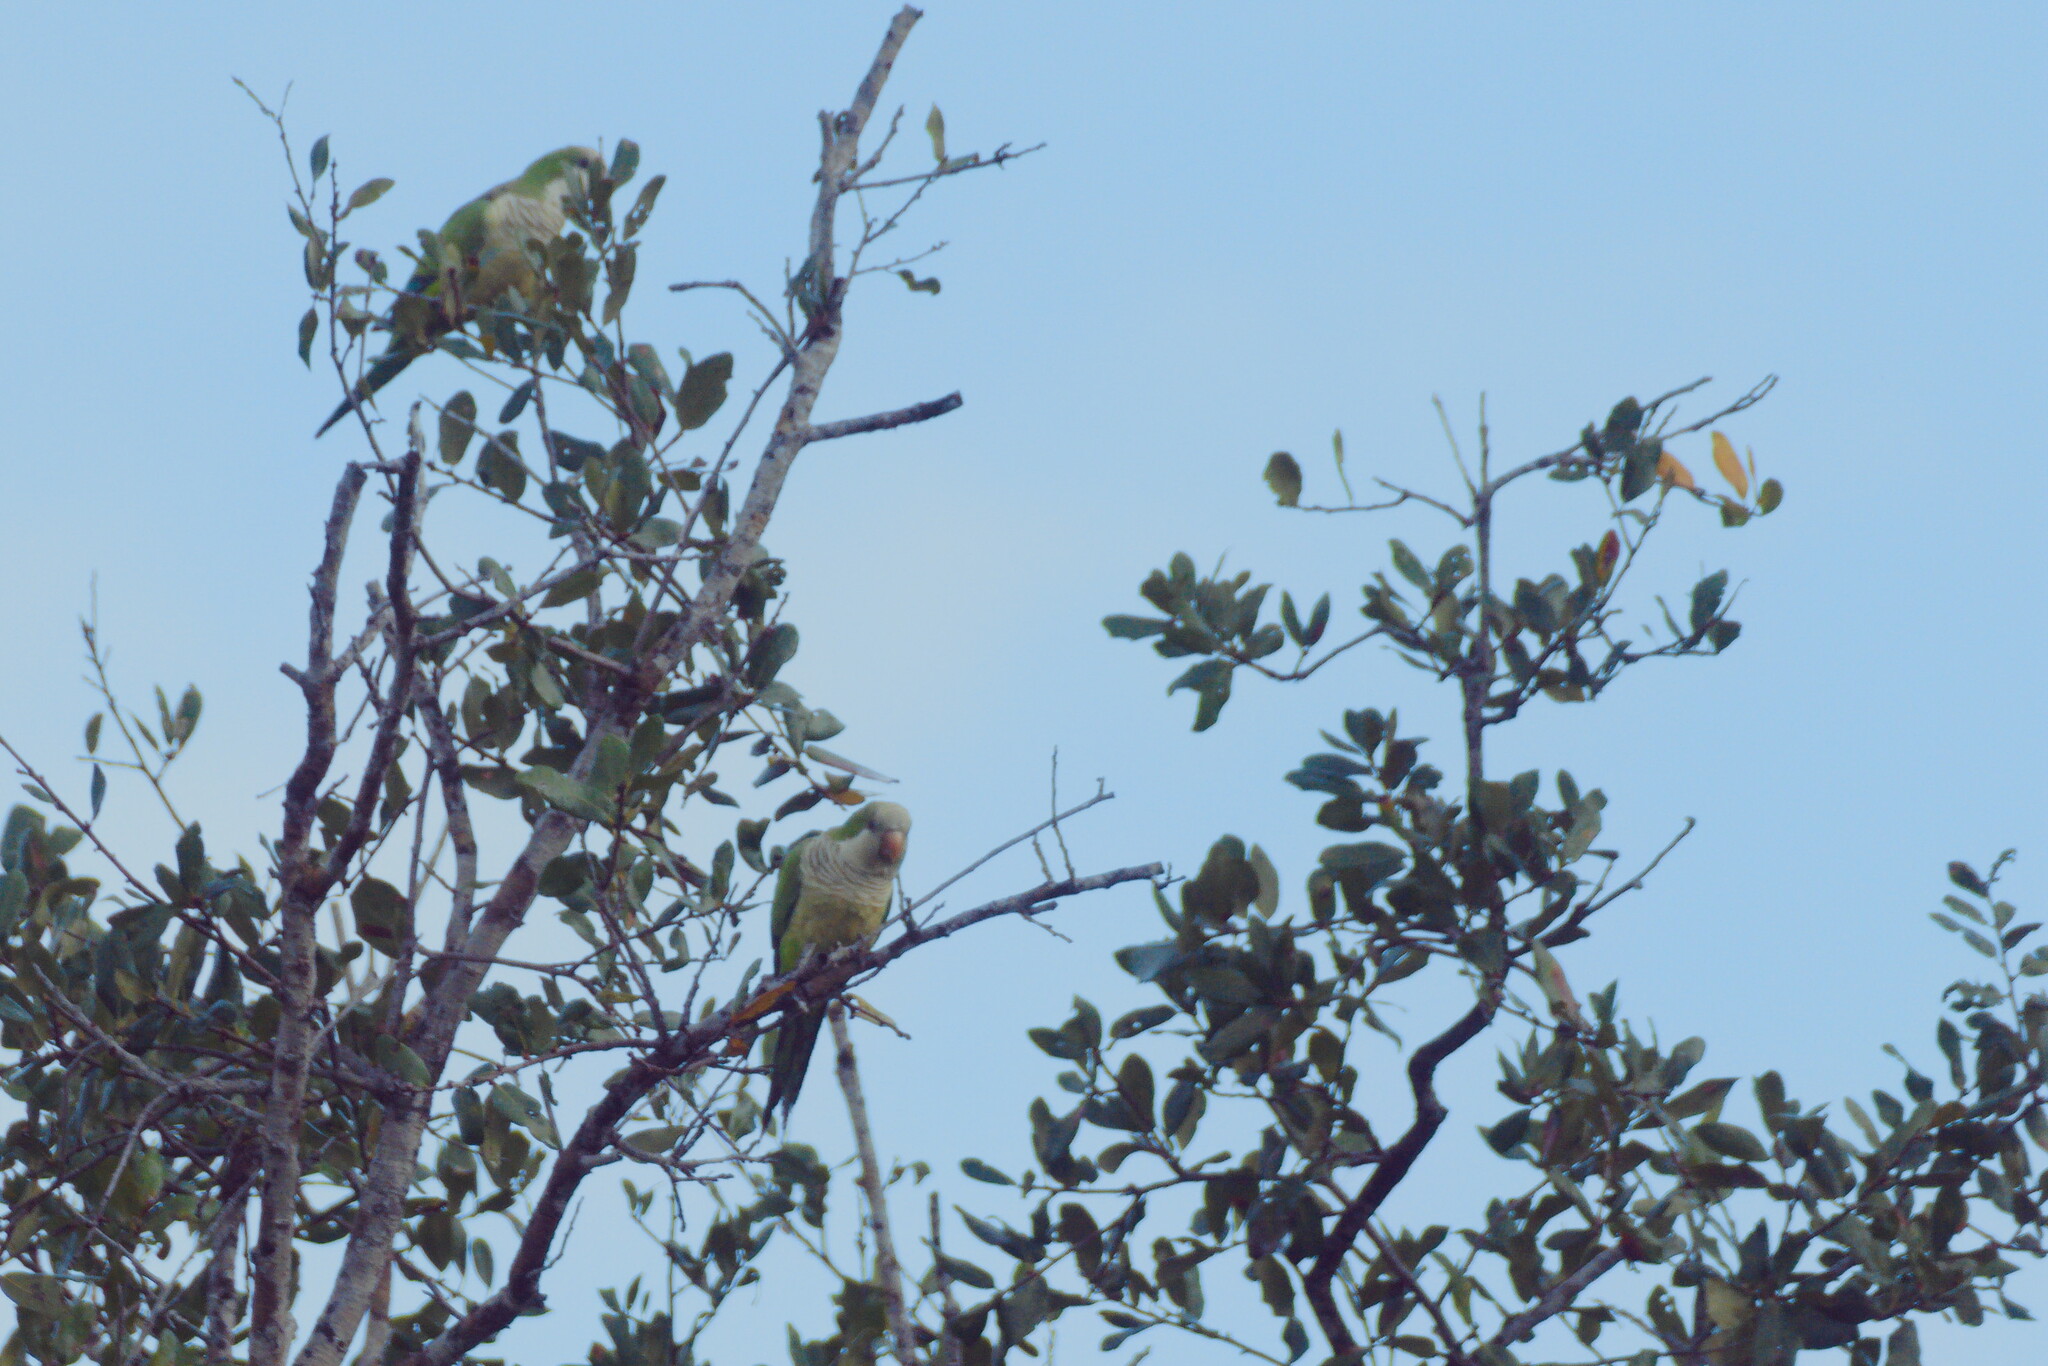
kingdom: Animalia
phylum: Chordata
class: Aves
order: Psittaciformes
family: Psittacidae
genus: Myiopsitta
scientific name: Myiopsitta monachus
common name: Monk parakeet
